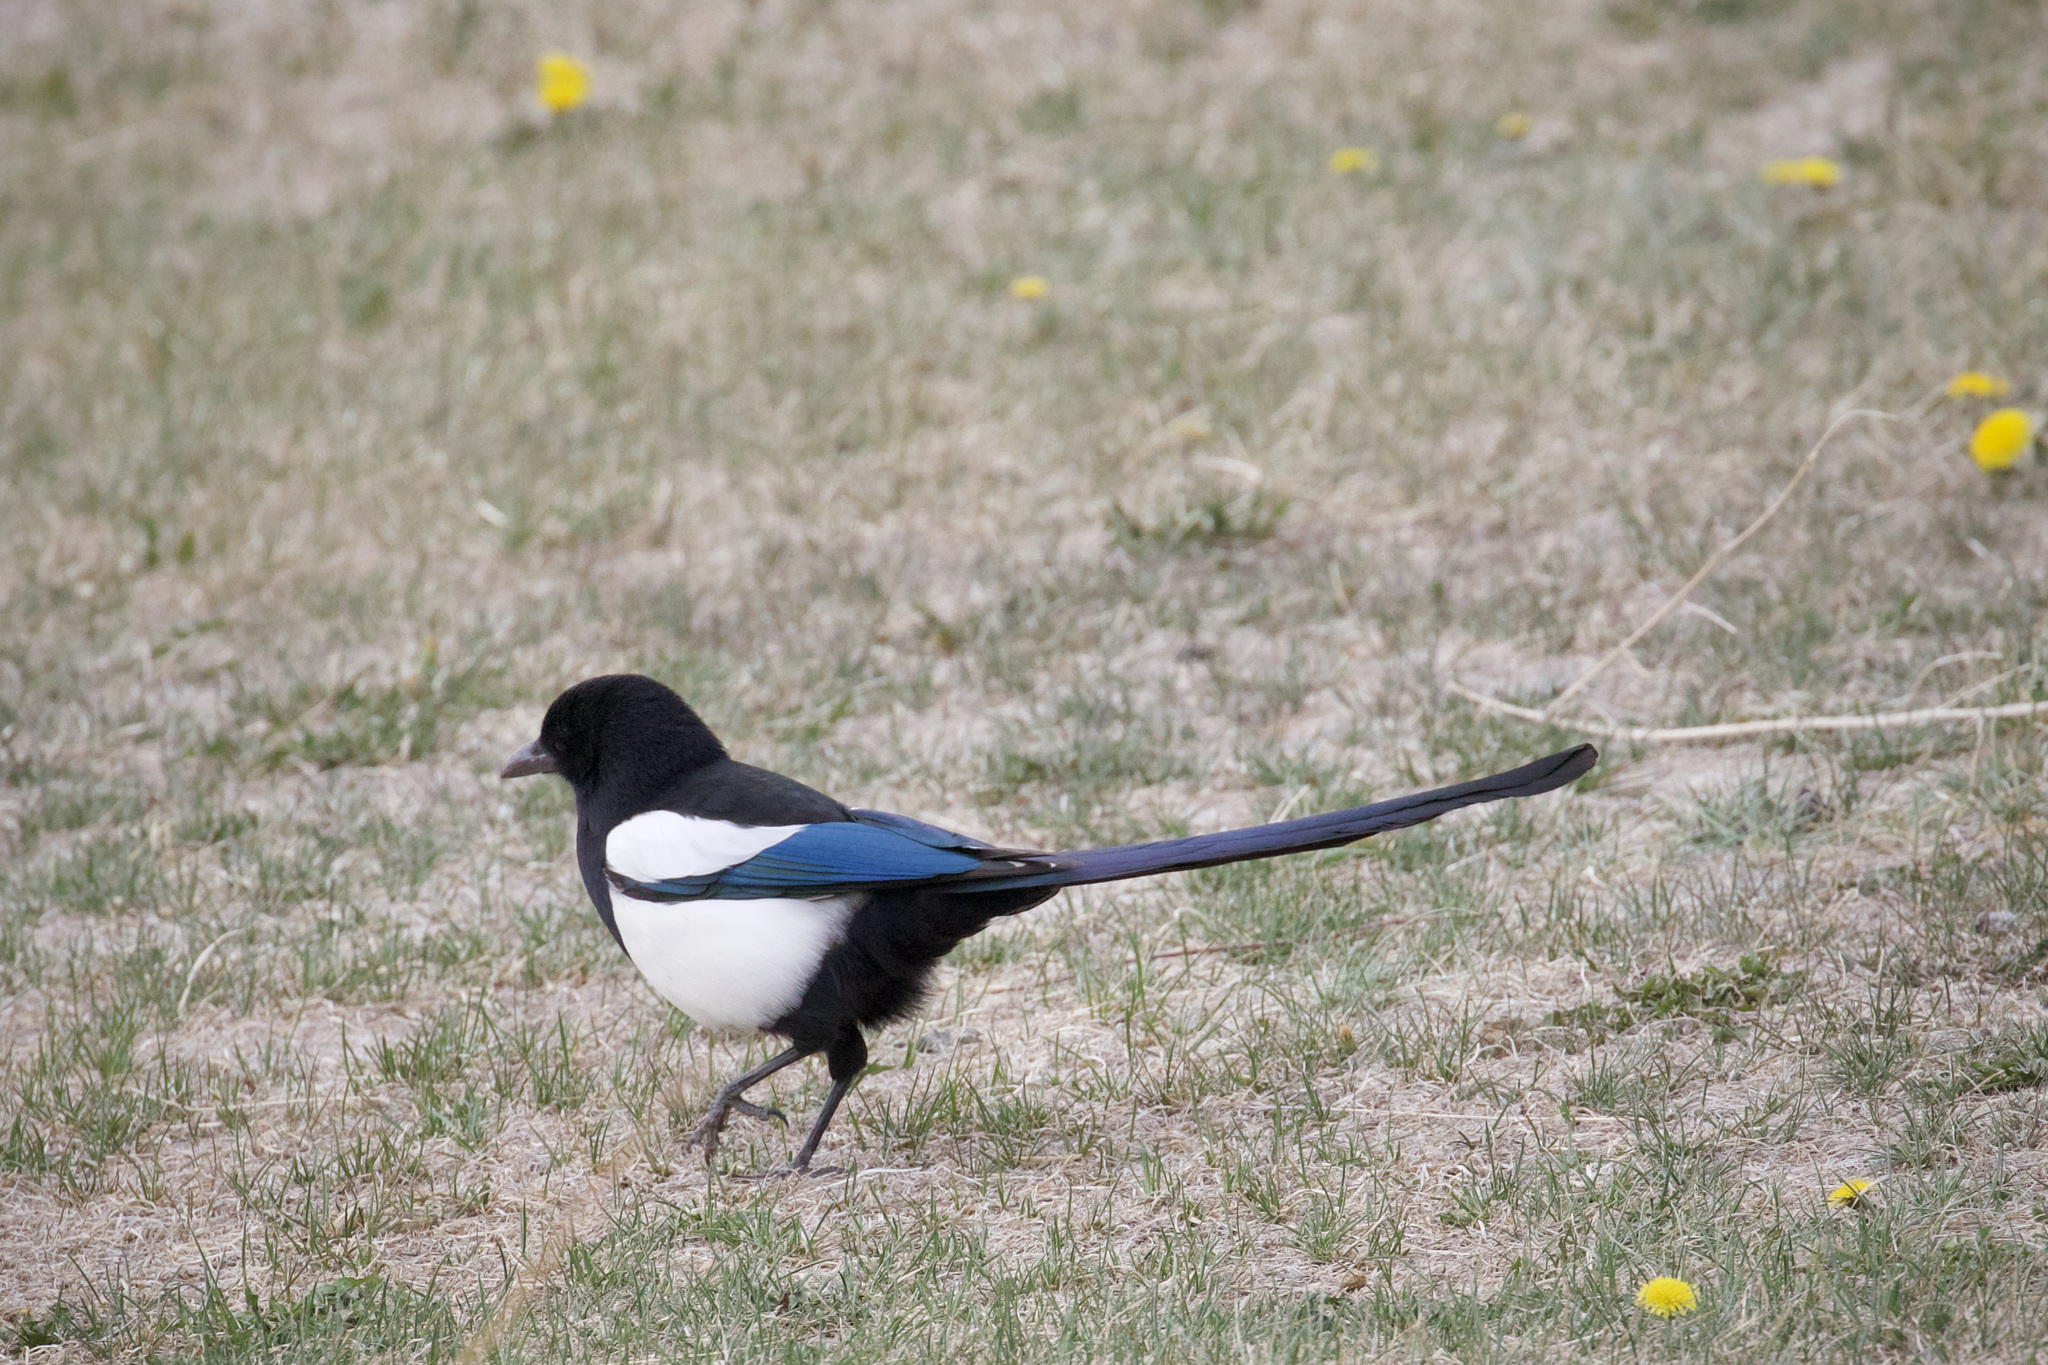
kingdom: Animalia
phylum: Chordata
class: Aves
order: Passeriformes
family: Corvidae
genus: Pica
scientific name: Pica hudsonia
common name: Black-billed magpie
